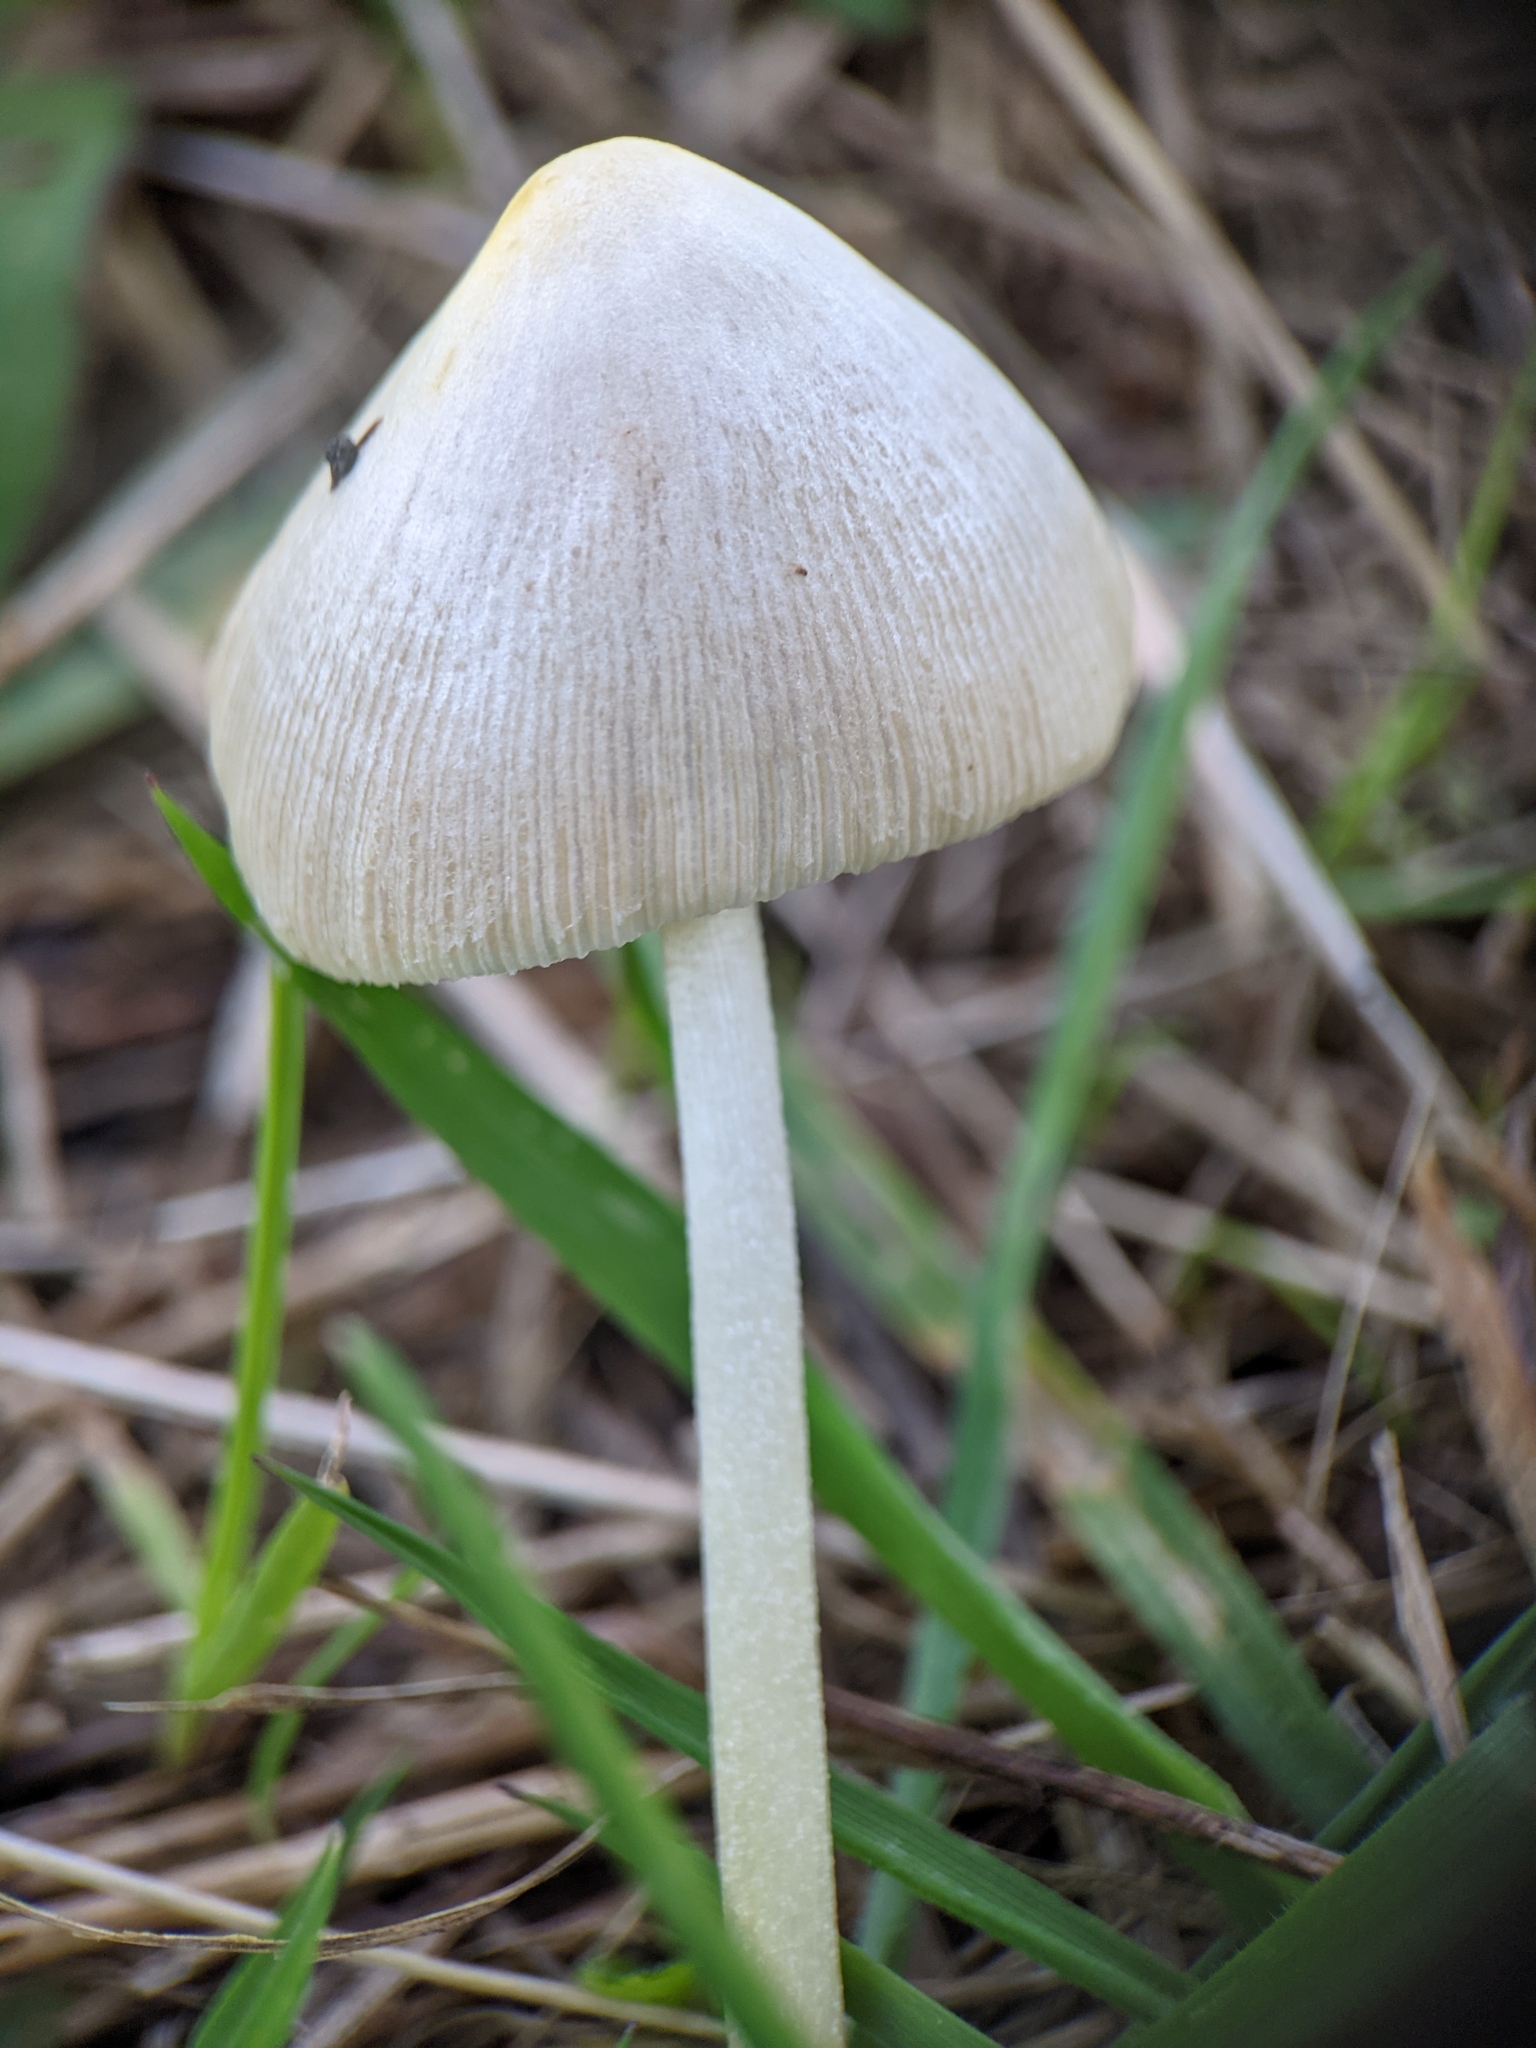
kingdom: Fungi
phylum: Basidiomycota
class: Agaricomycetes
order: Agaricales
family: Bolbitiaceae
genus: Bolbitius
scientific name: Bolbitius titubans
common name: Yellow fieldcap
